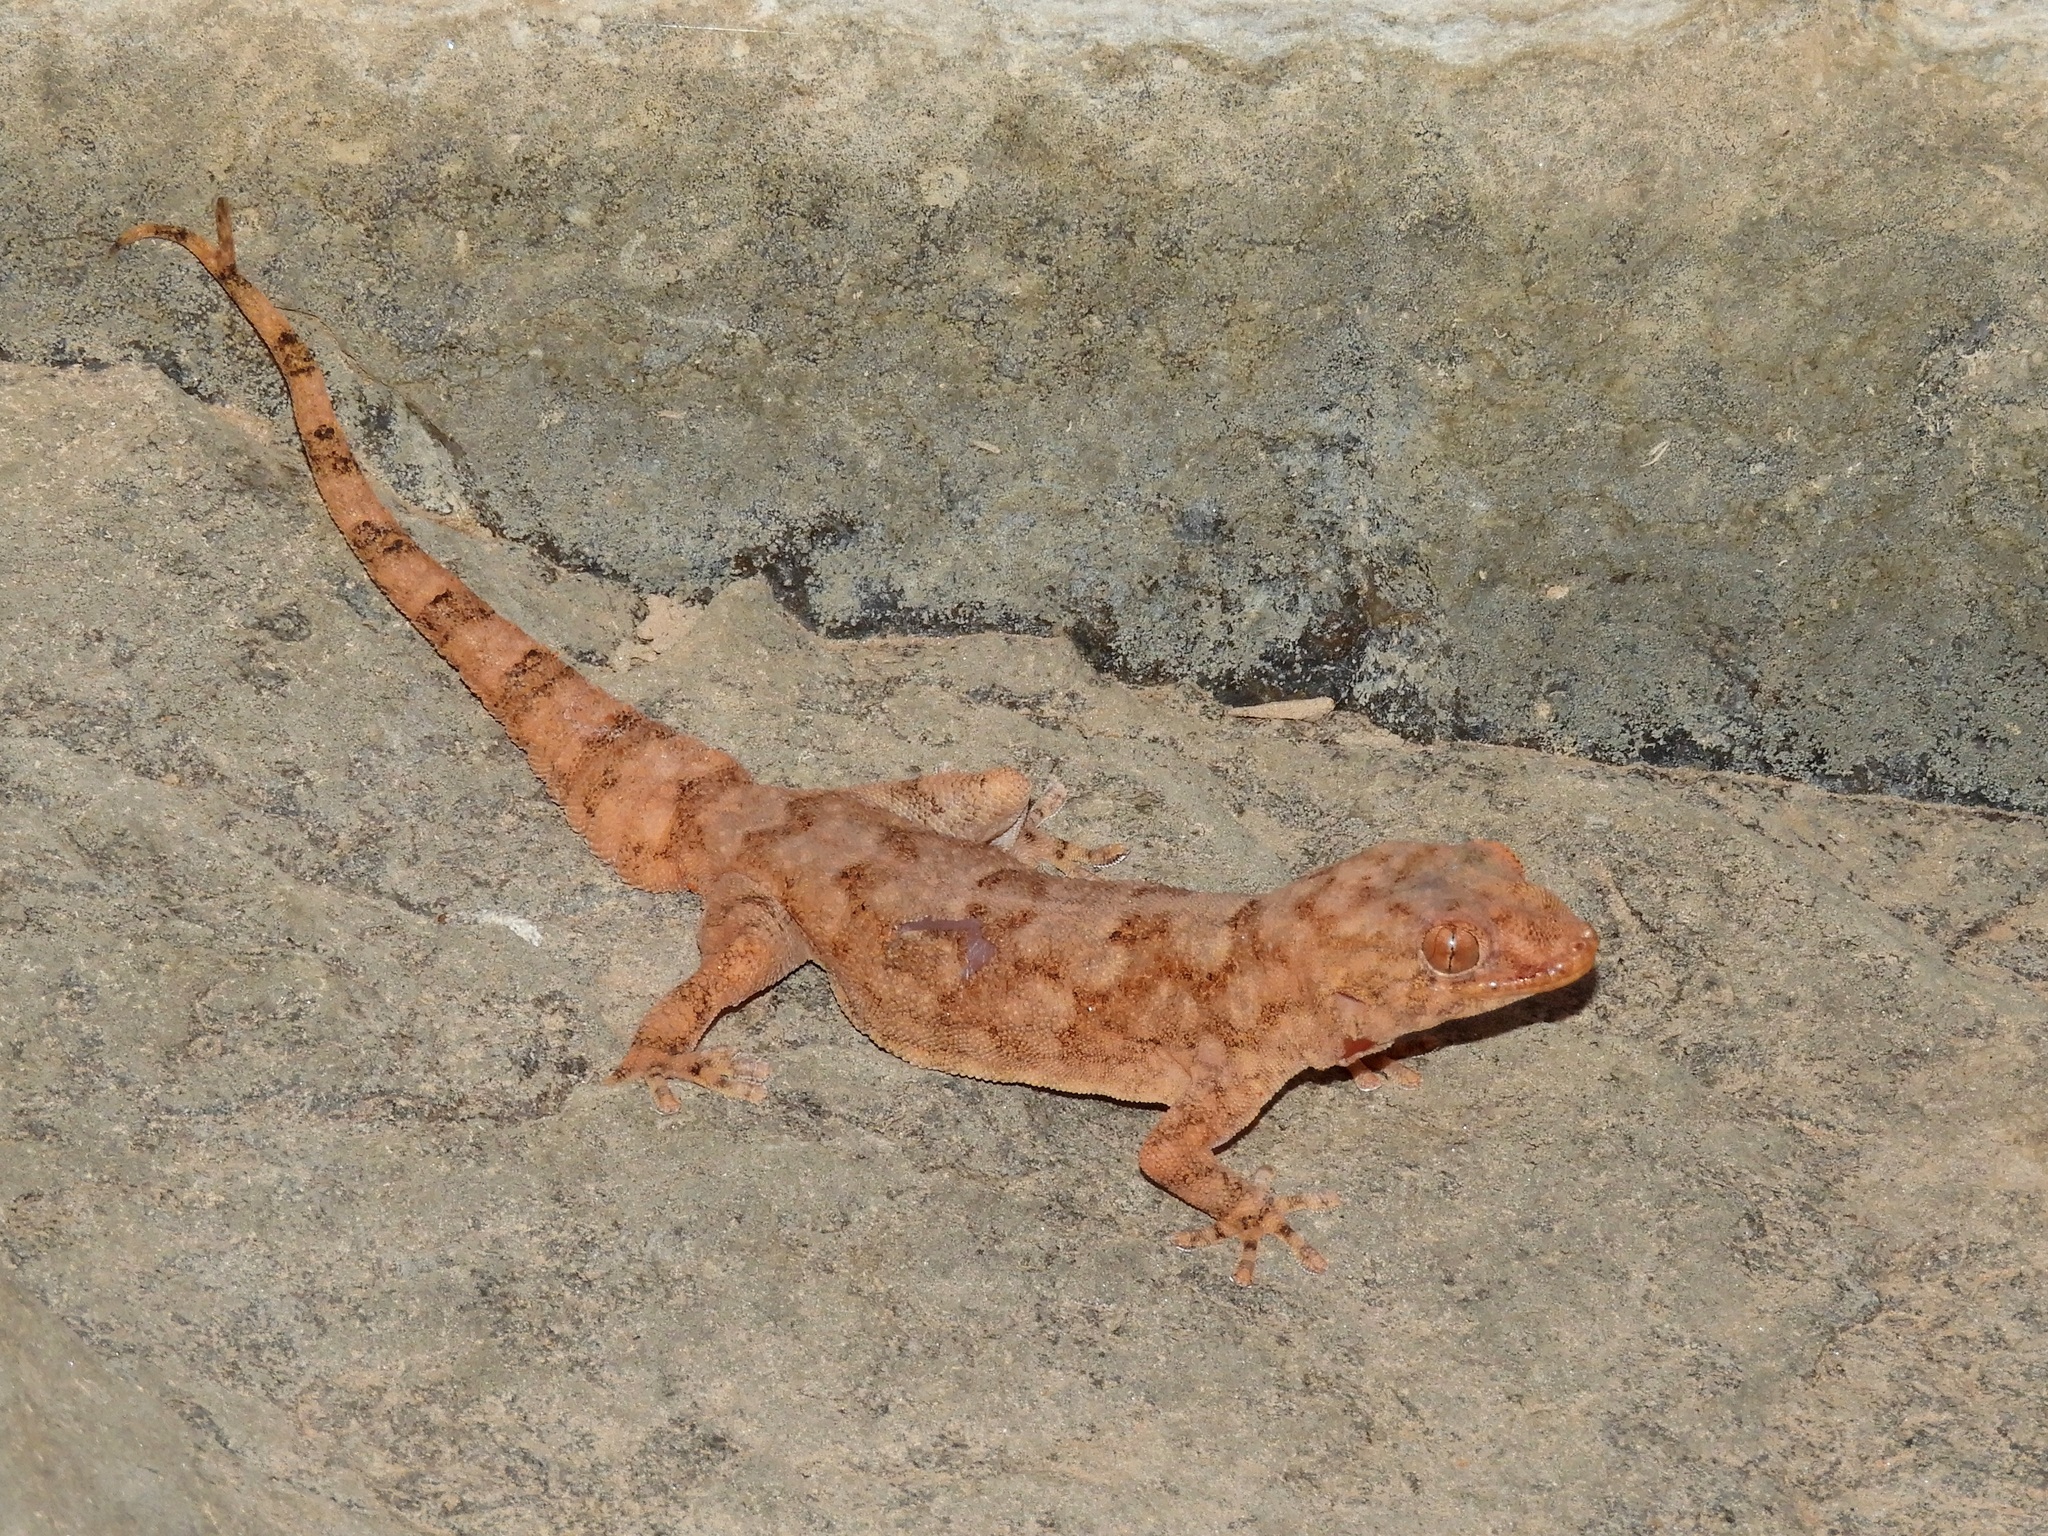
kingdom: Animalia
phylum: Chordata
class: Squamata
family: Gekkonidae
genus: Pachydactylus
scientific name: Pachydactylus haackei
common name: Haacke's gecko
